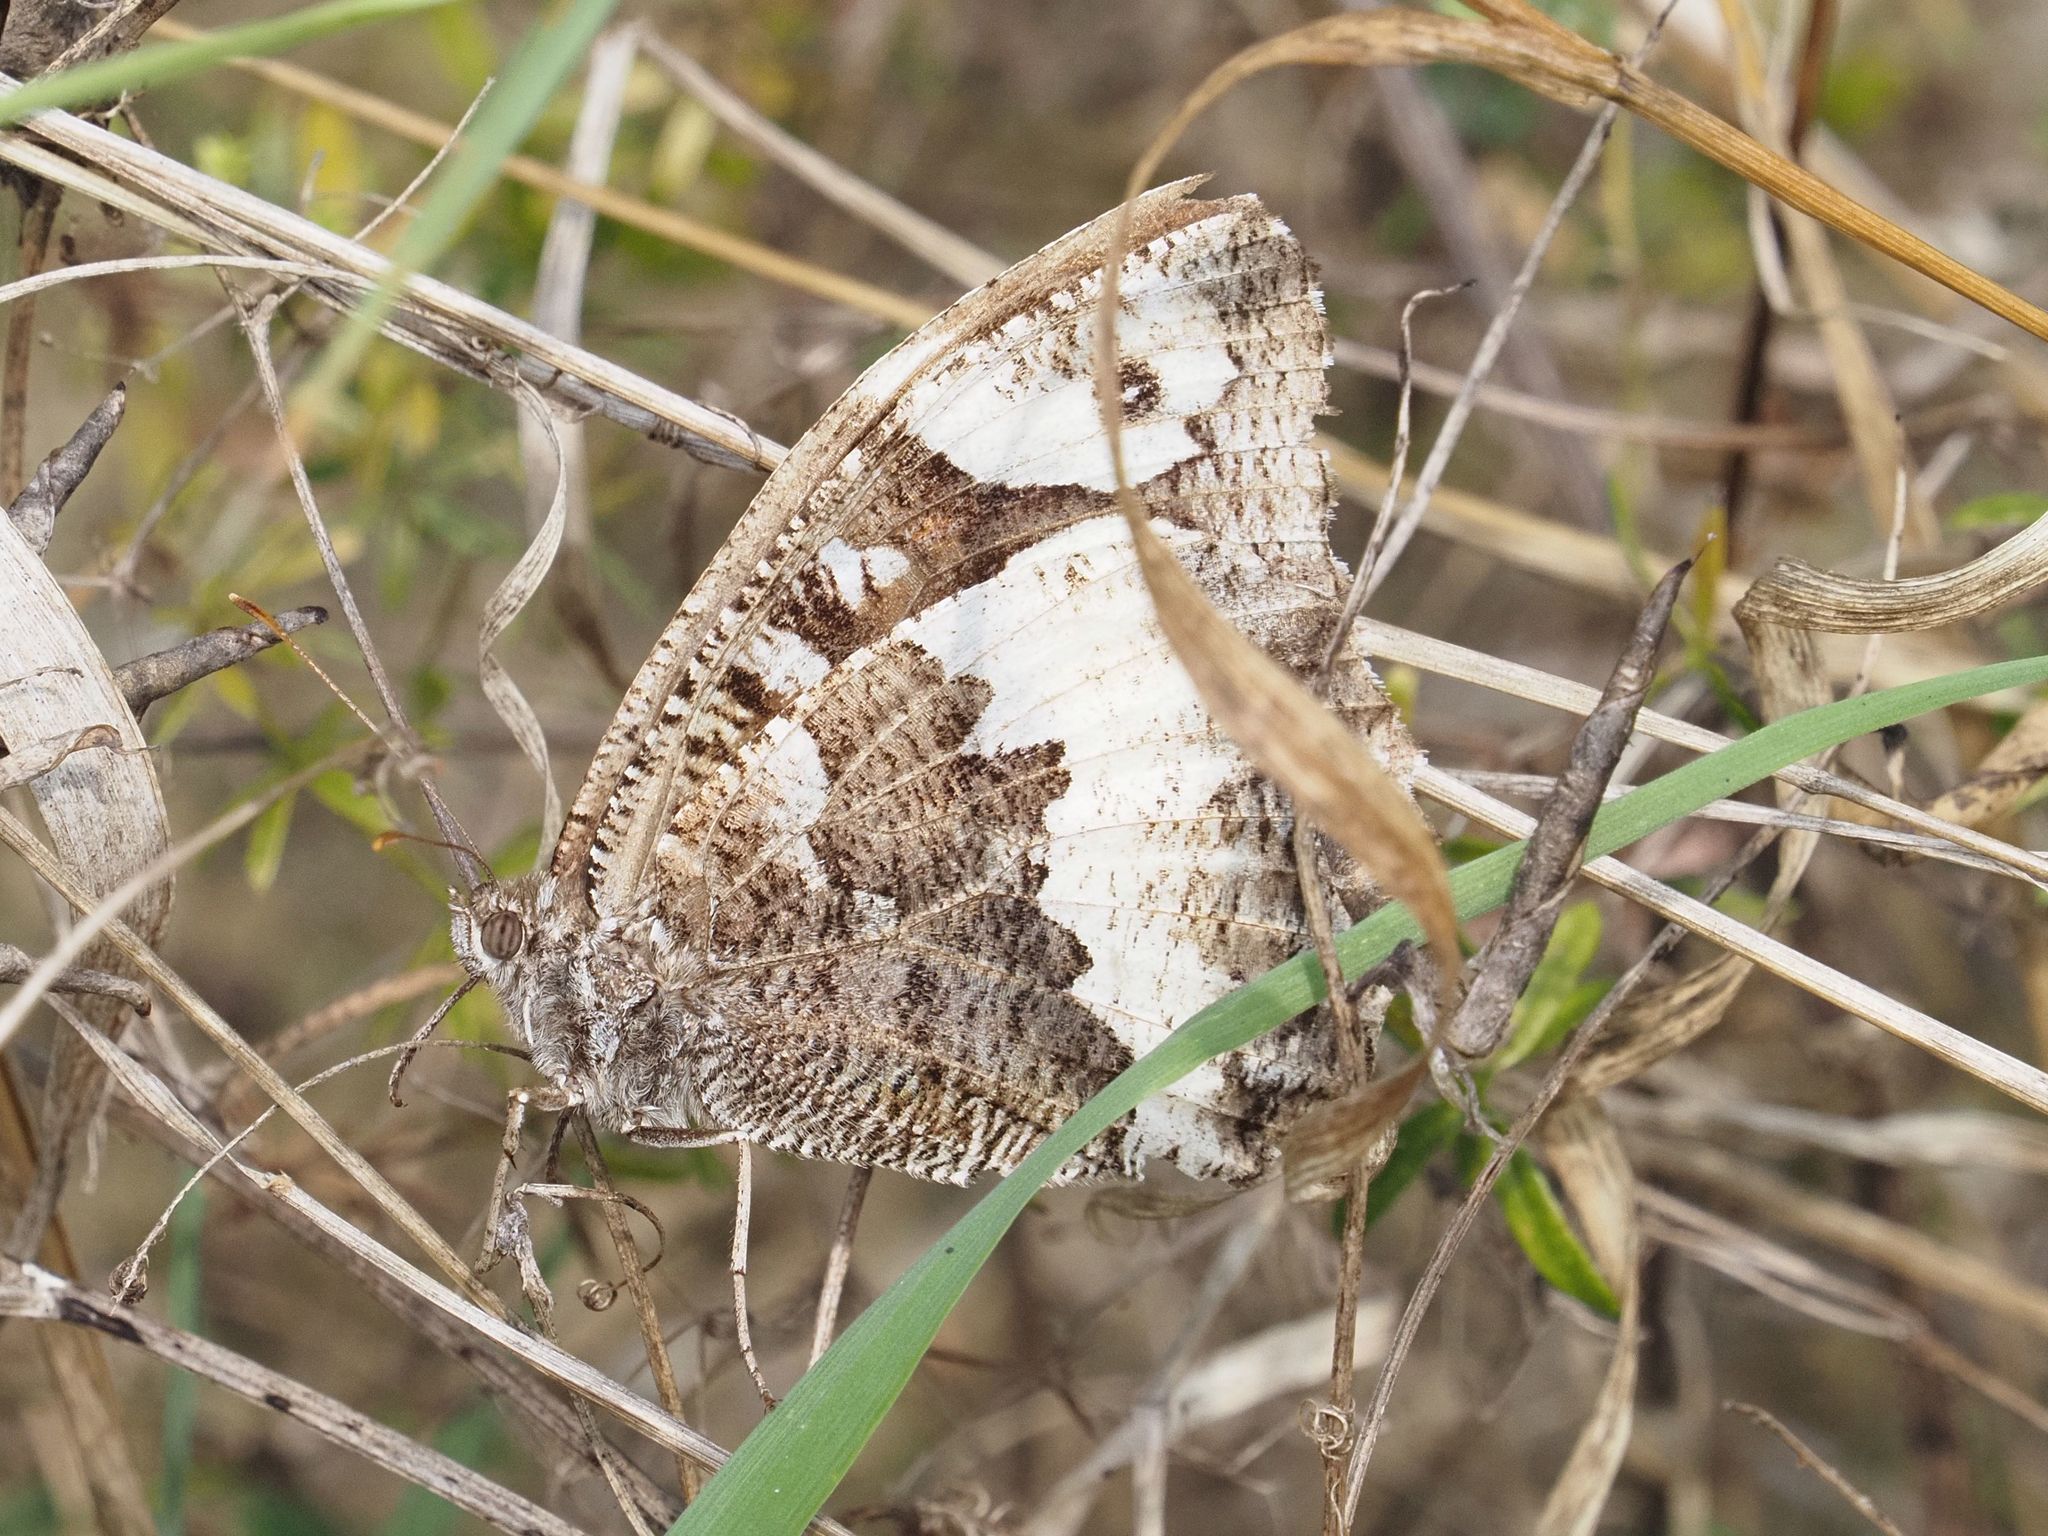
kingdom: Animalia
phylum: Arthropoda
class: Insecta
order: Lepidoptera
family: Lycaenidae
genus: Loweia
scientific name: Loweia tityrus
